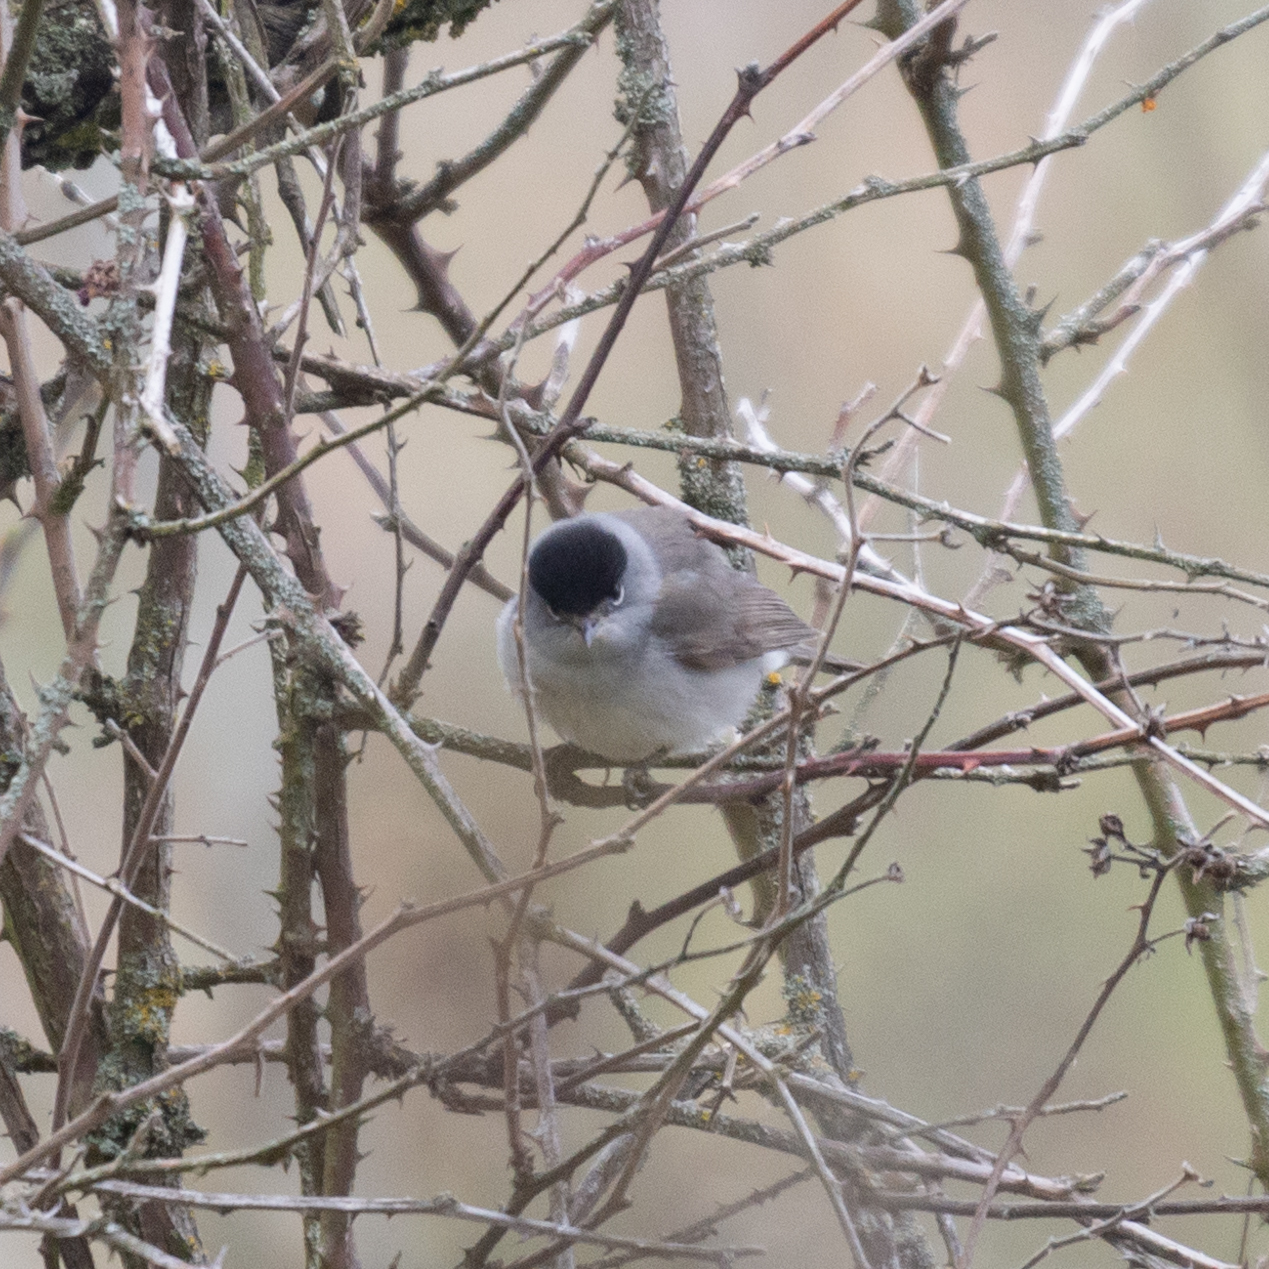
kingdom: Animalia
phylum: Chordata
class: Aves
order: Passeriformes
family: Sylviidae
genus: Sylvia
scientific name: Sylvia atricapilla
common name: Eurasian blackcap
